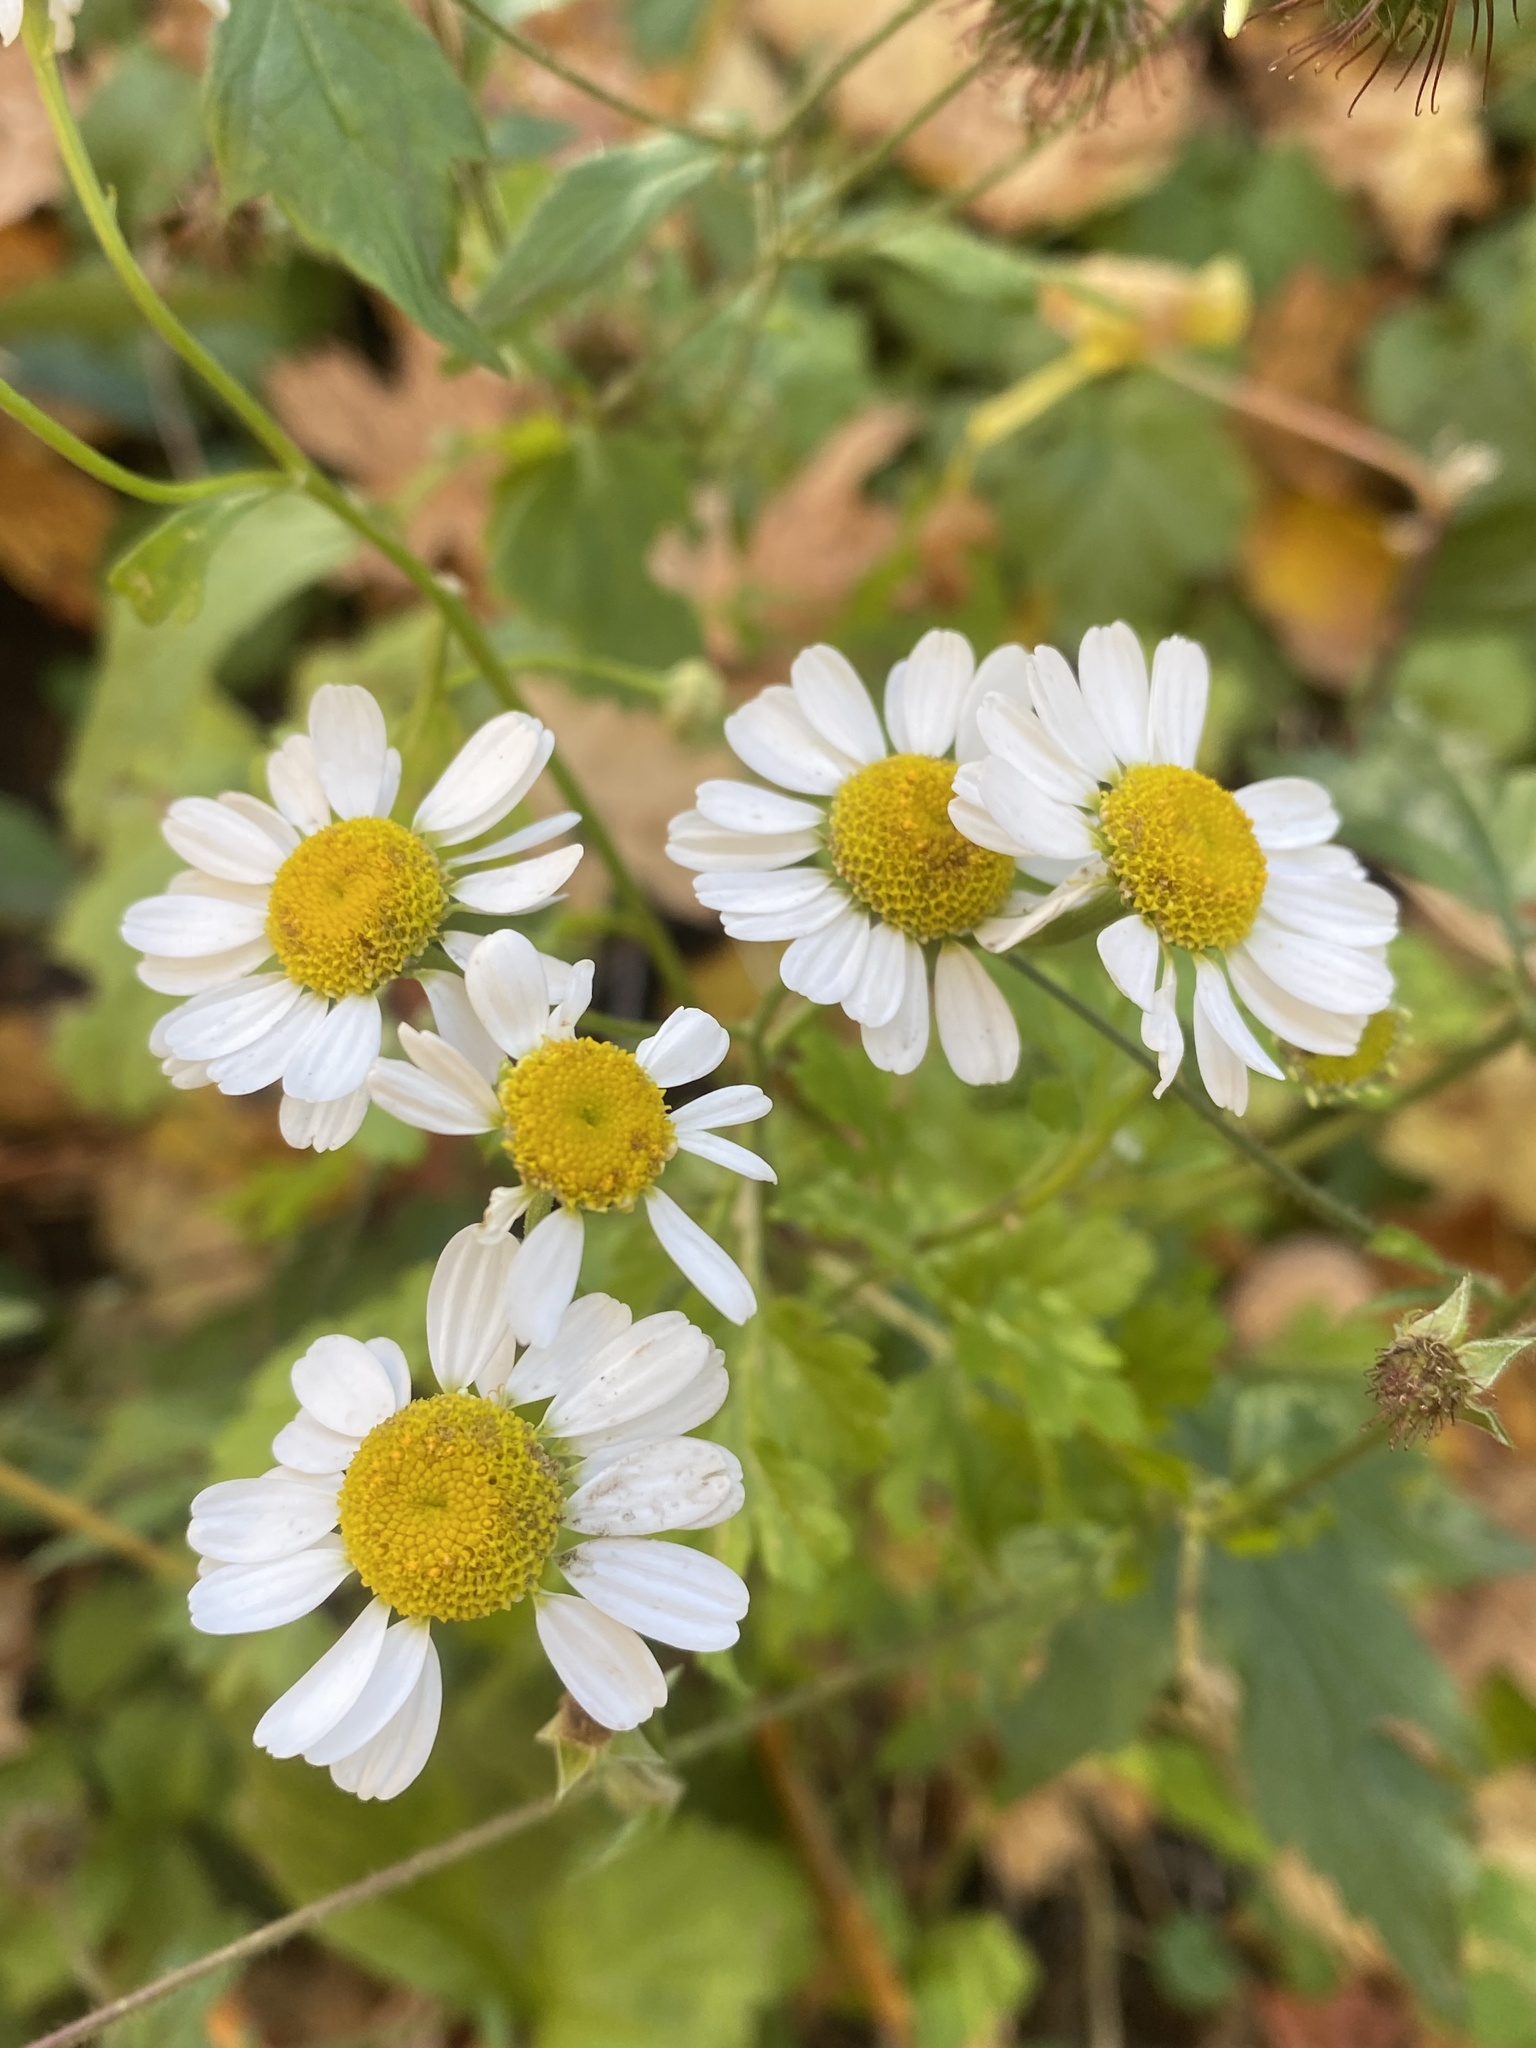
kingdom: Plantae
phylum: Tracheophyta
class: Magnoliopsida
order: Asterales
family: Asteraceae
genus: Tanacetum
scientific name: Tanacetum parthenium
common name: Feverfew
